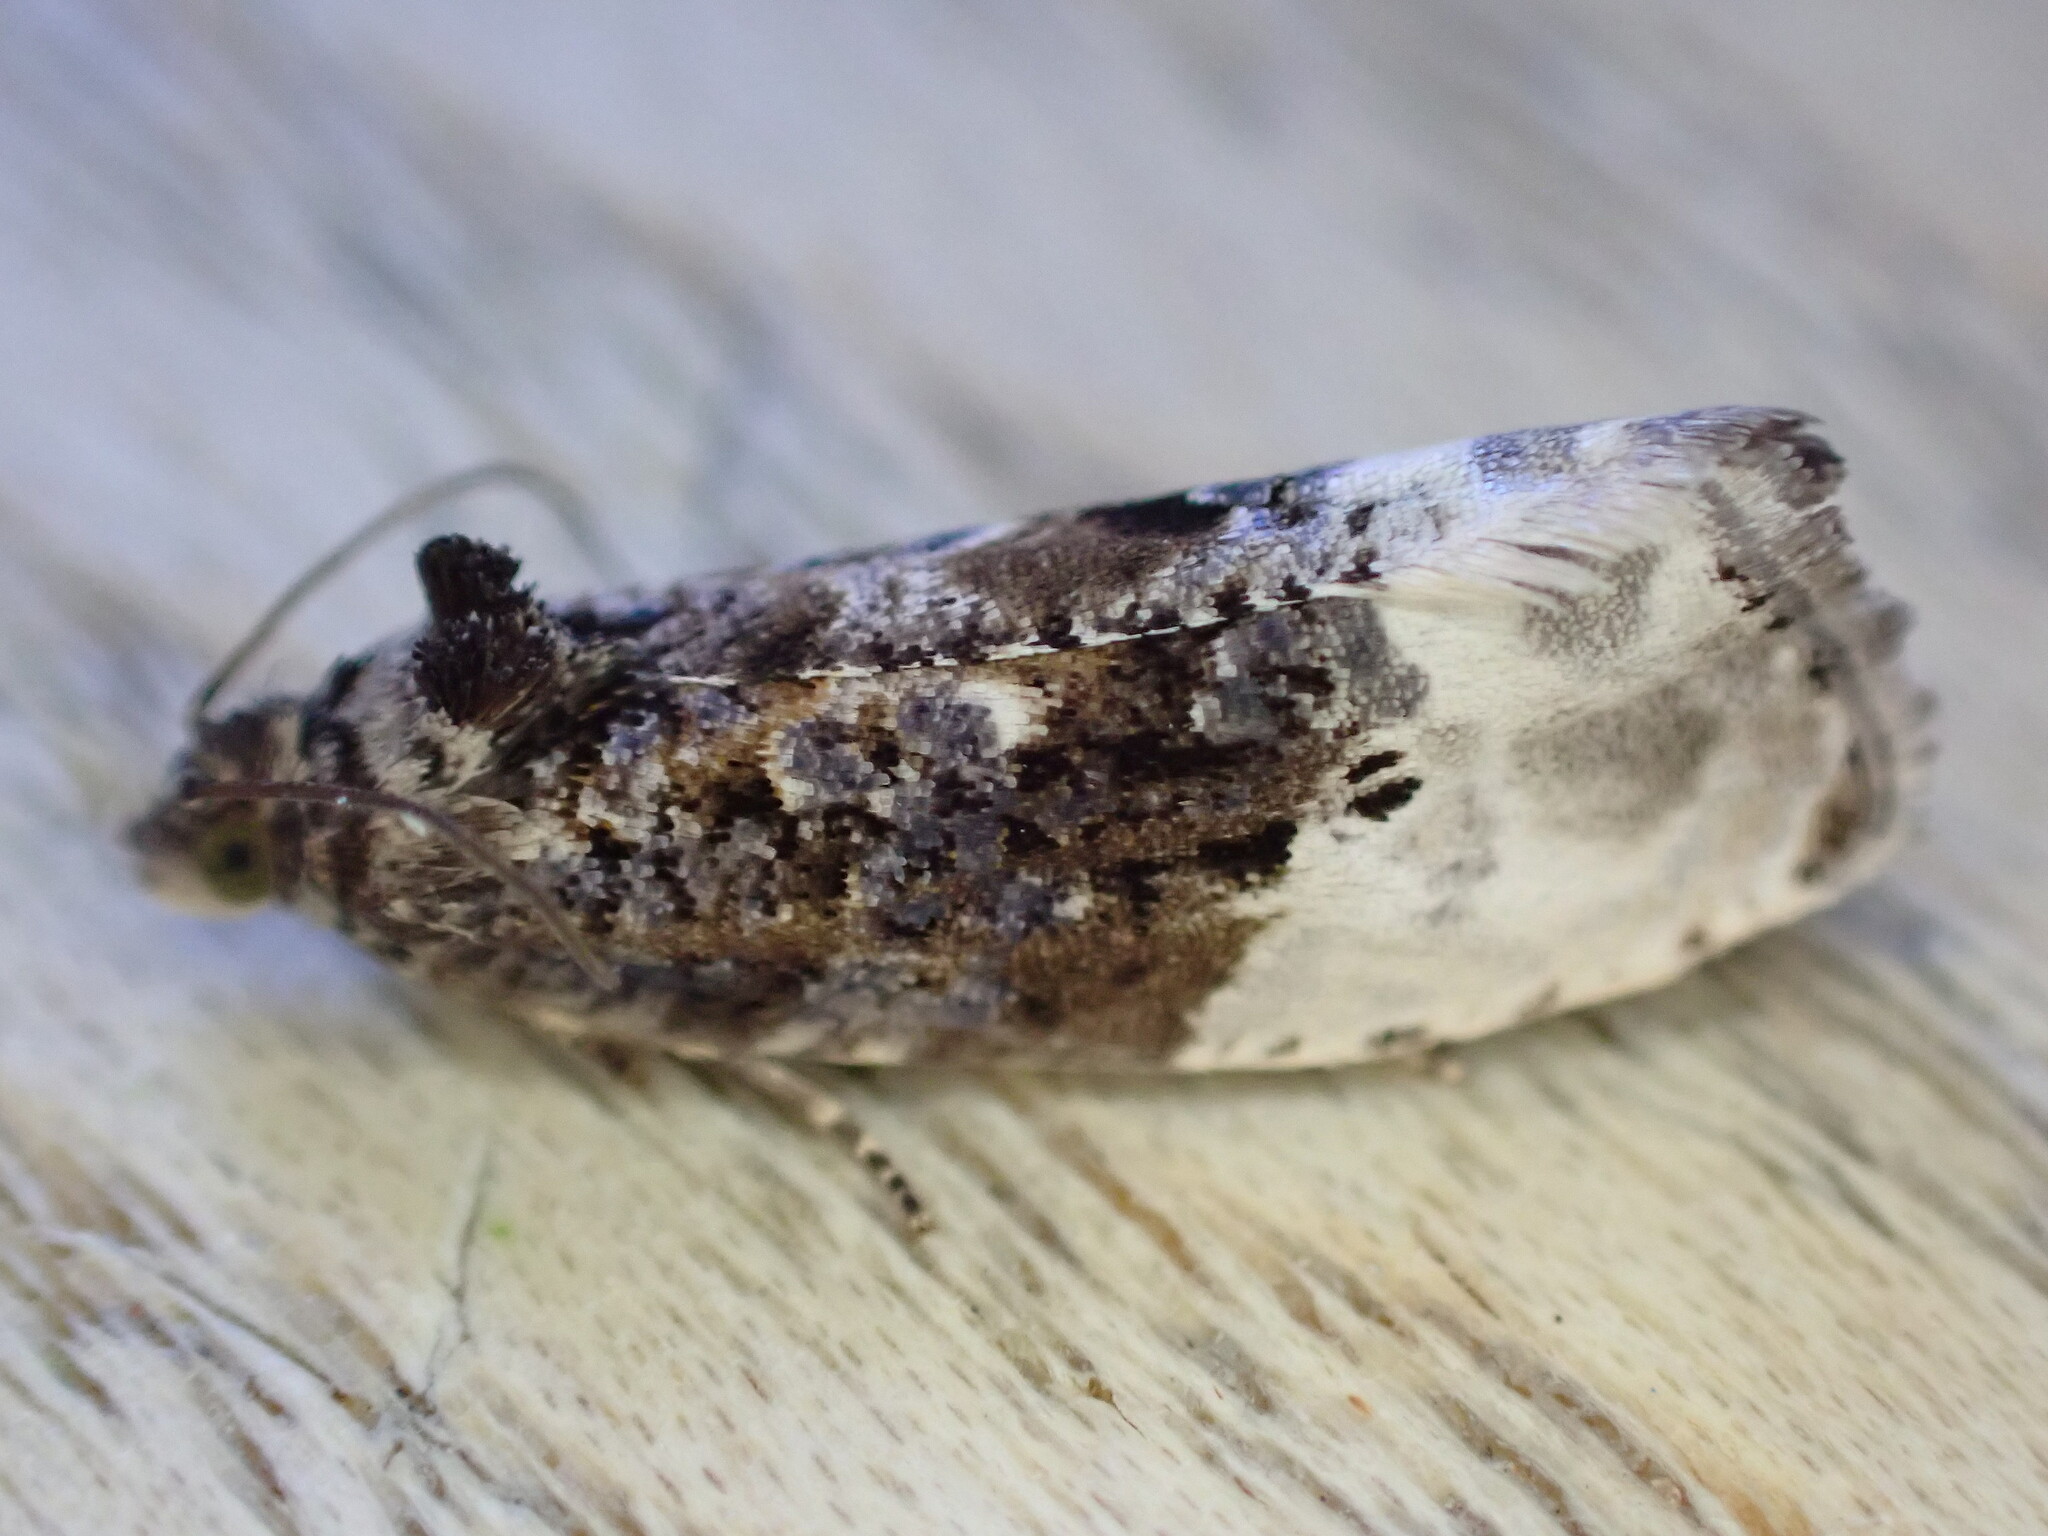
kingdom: Animalia
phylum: Arthropoda
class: Insecta
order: Lepidoptera
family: Tortricidae
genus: Hedya
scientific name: Hedya nubiferana
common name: Marbled orchard tortrix
